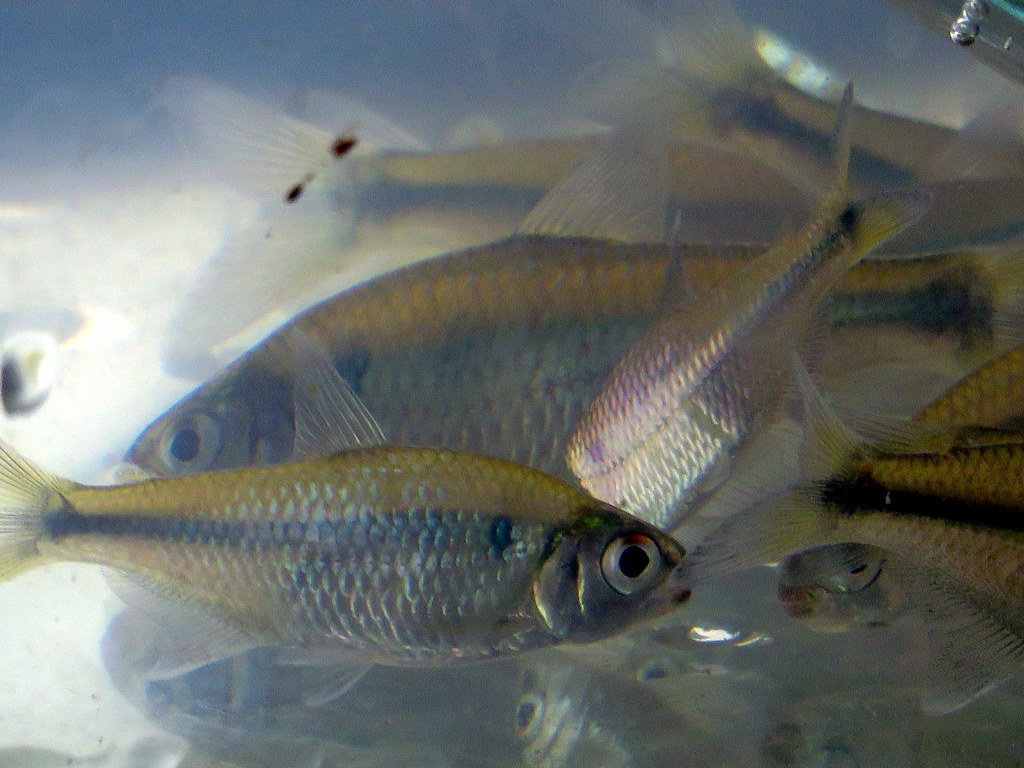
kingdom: Animalia
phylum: Chordata
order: Characiformes
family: Characidae
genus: Bryconamericus
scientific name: Bryconamericus iheringii
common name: Tetra
